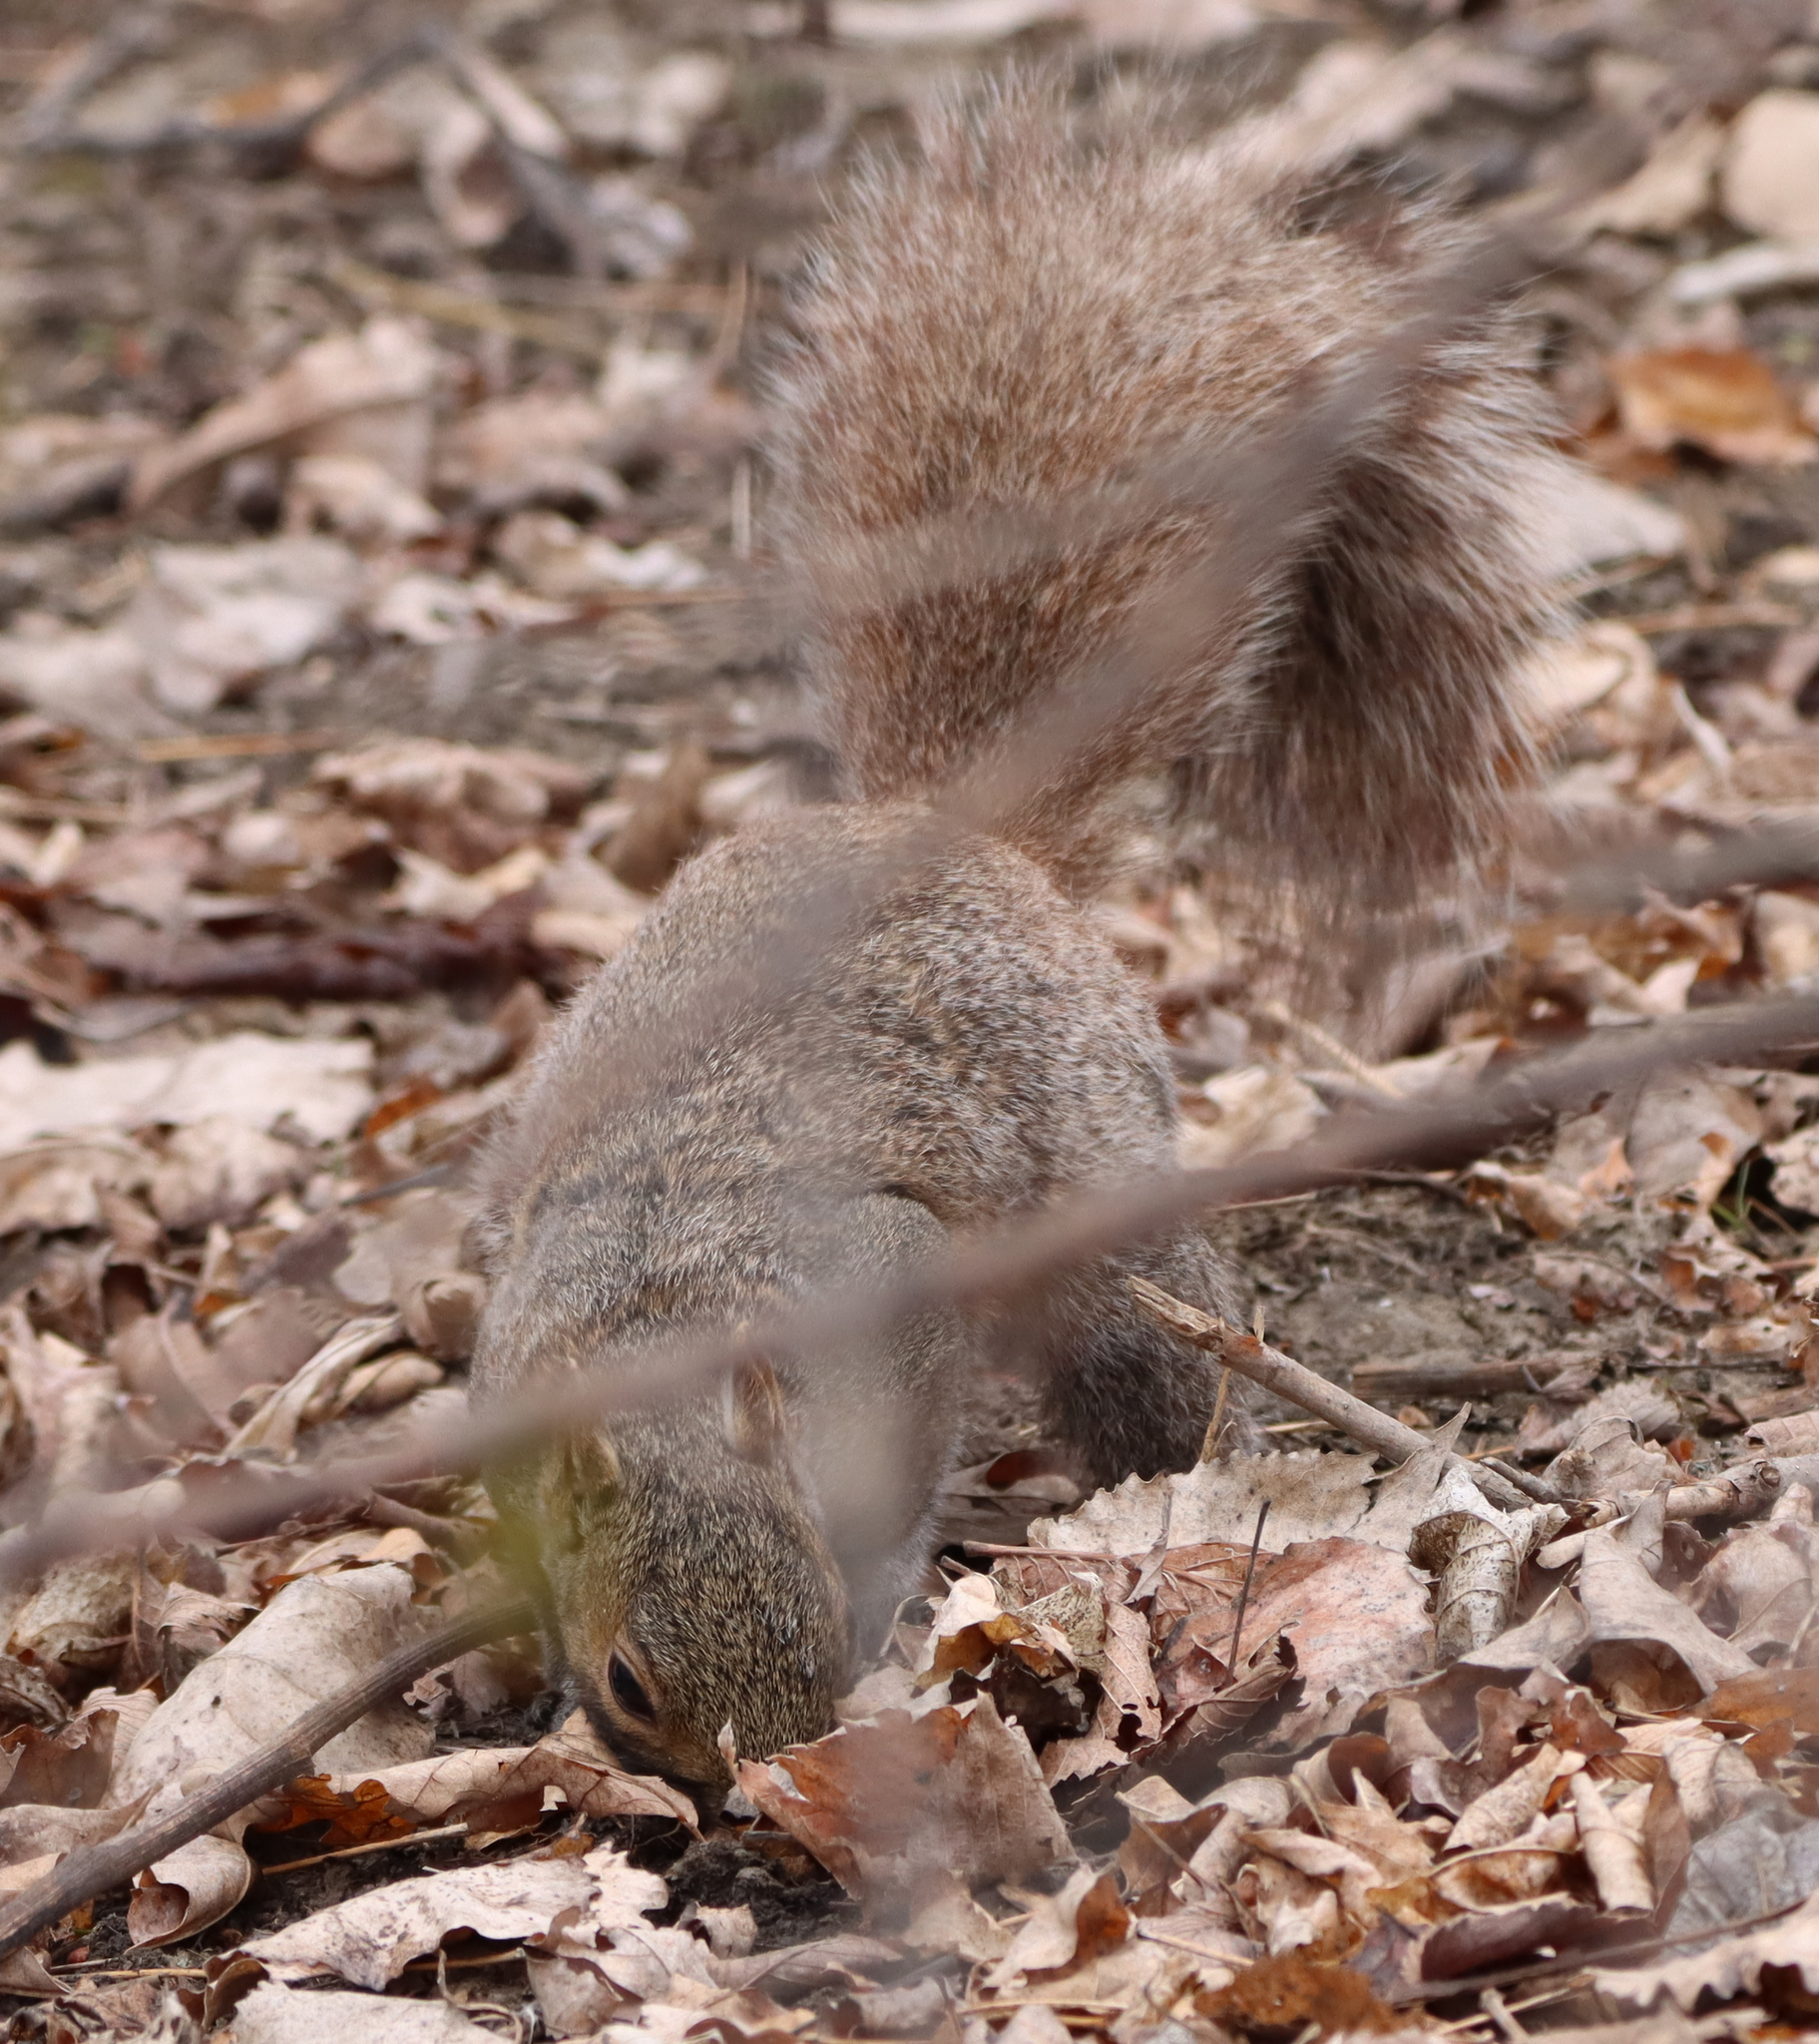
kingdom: Animalia
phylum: Chordata
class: Mammalia
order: Rodentia
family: Sciuridae
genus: Sciurus
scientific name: Sciurus carolinensis
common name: Eastern gray squirrel
